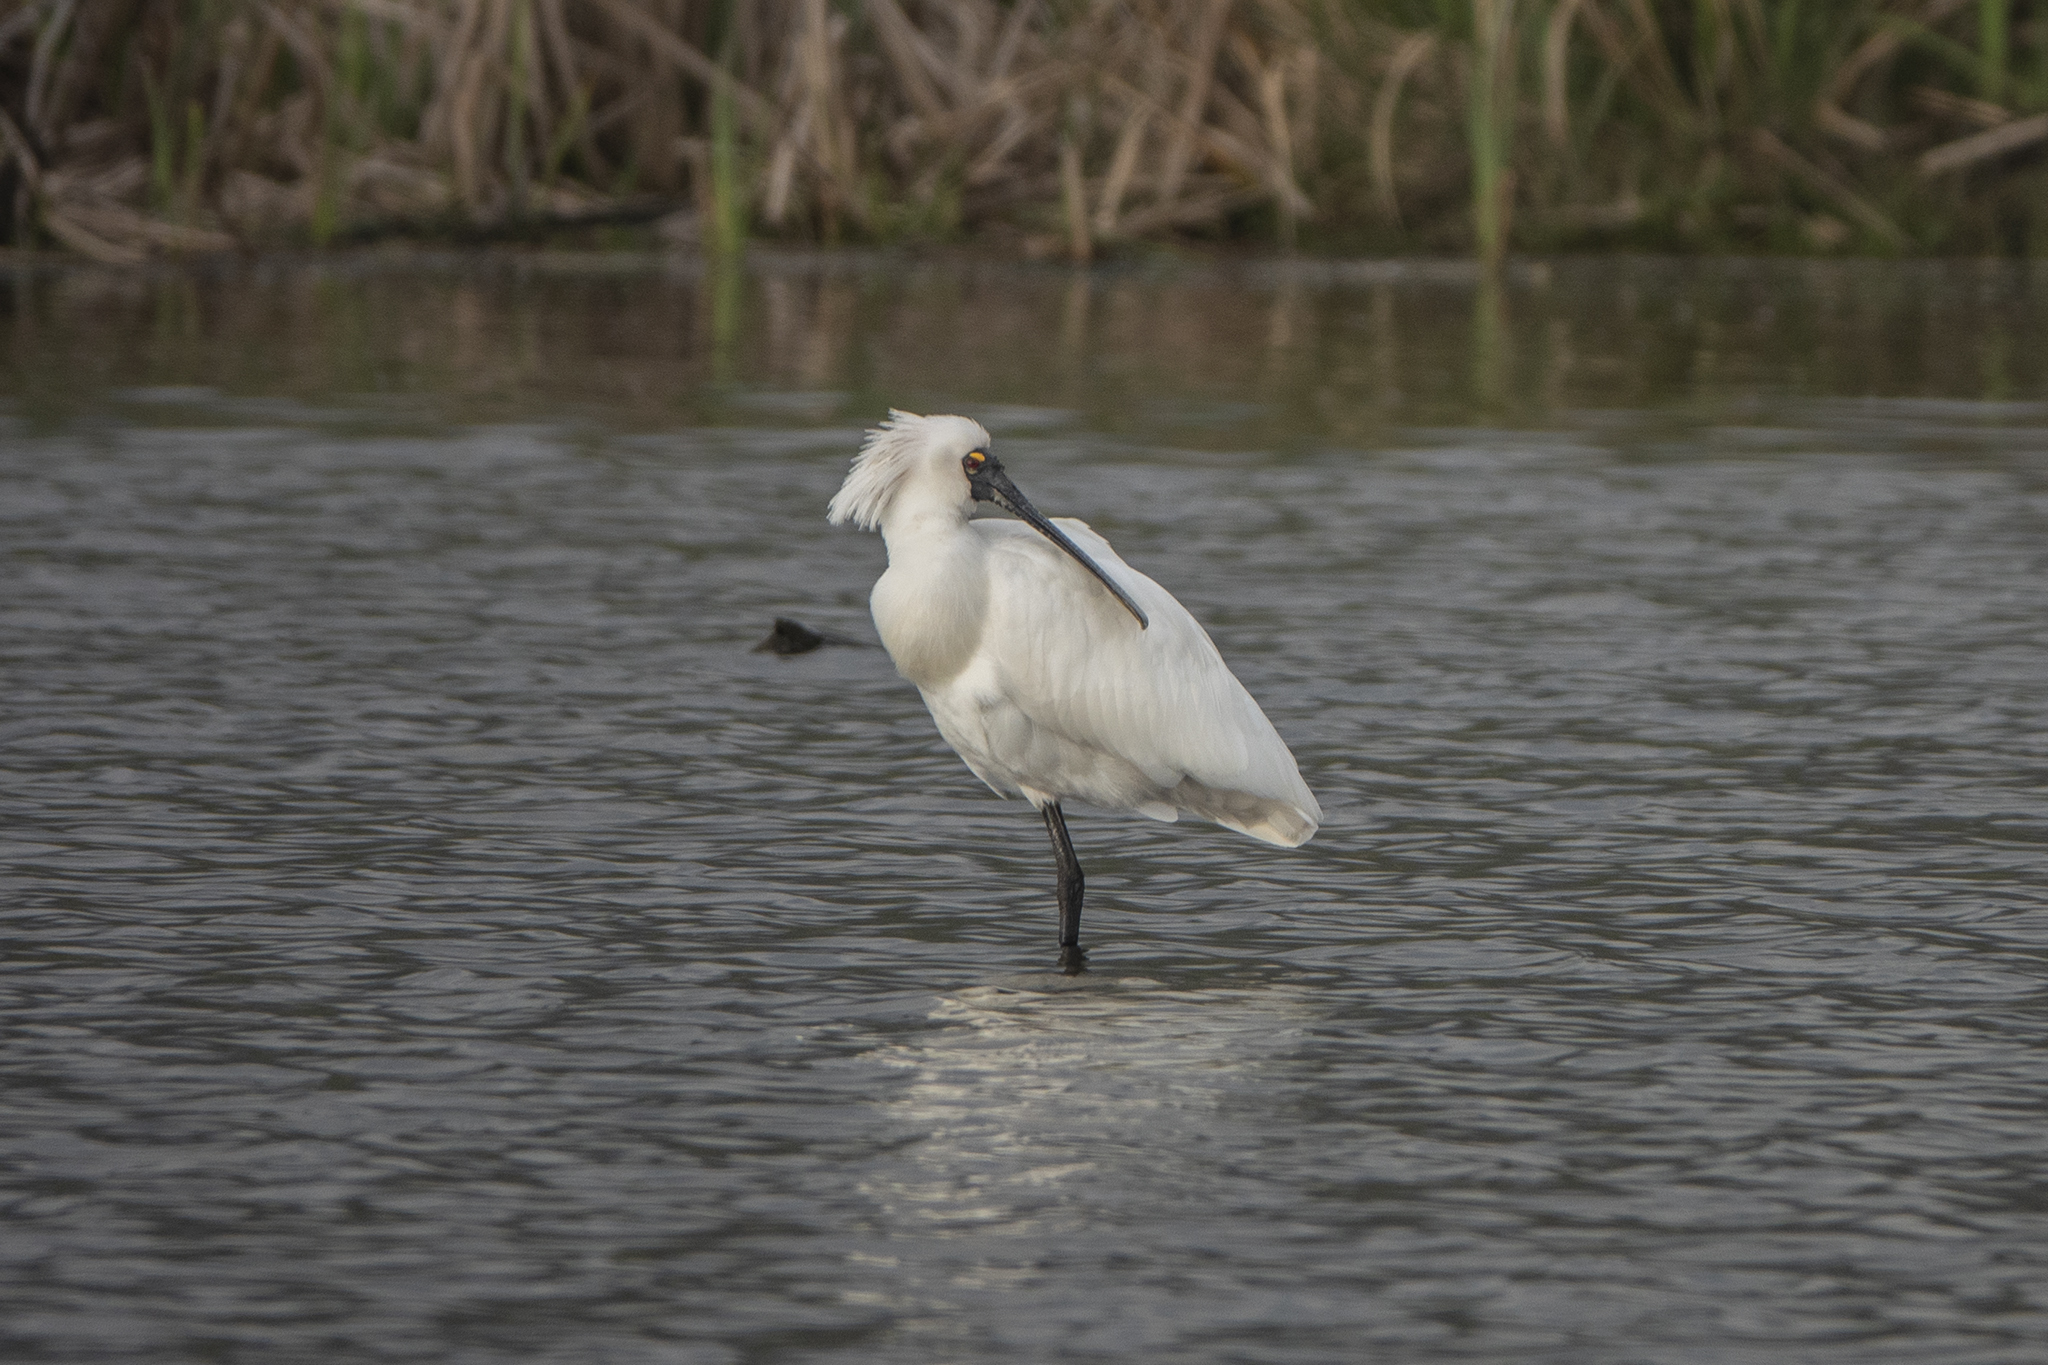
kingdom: Animalia
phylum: Chordata
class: Aves
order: Pelecaniformes
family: Threskiornithidae
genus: Platalea
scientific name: Platalea regia
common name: Royal spoonbill
